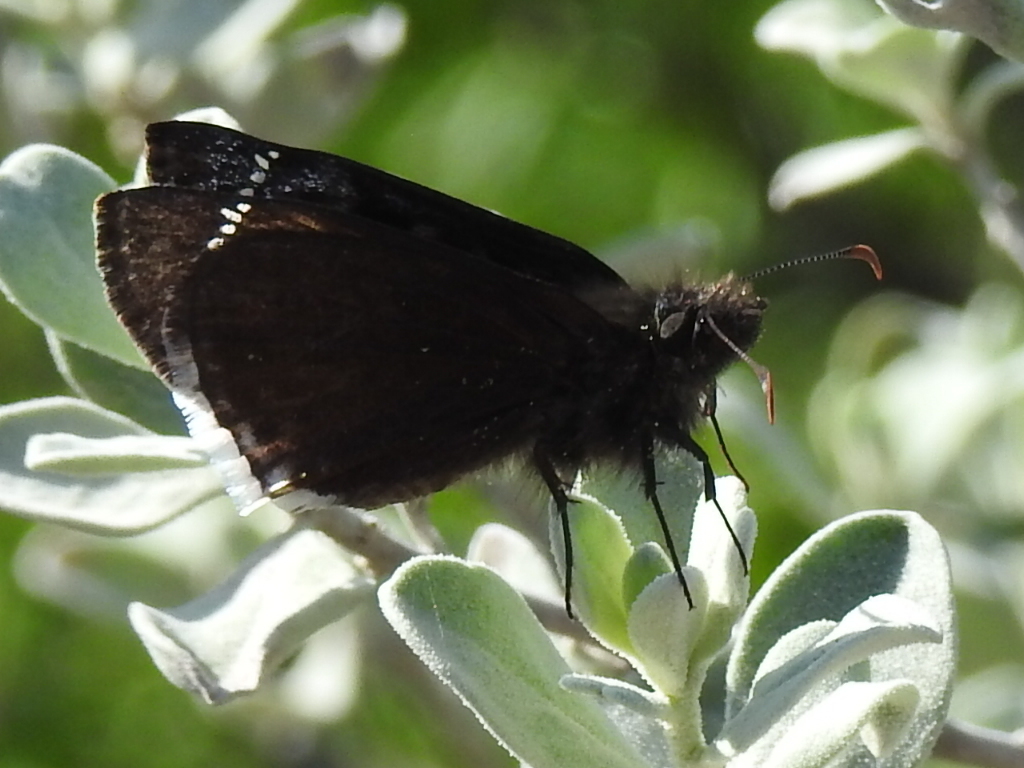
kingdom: Animalia
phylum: Arthropoda
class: Insecta
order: Lepidoptera
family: Hesperiidae
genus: Erynnis
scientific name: Erynnis funeralis
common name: Funereal duskywing
